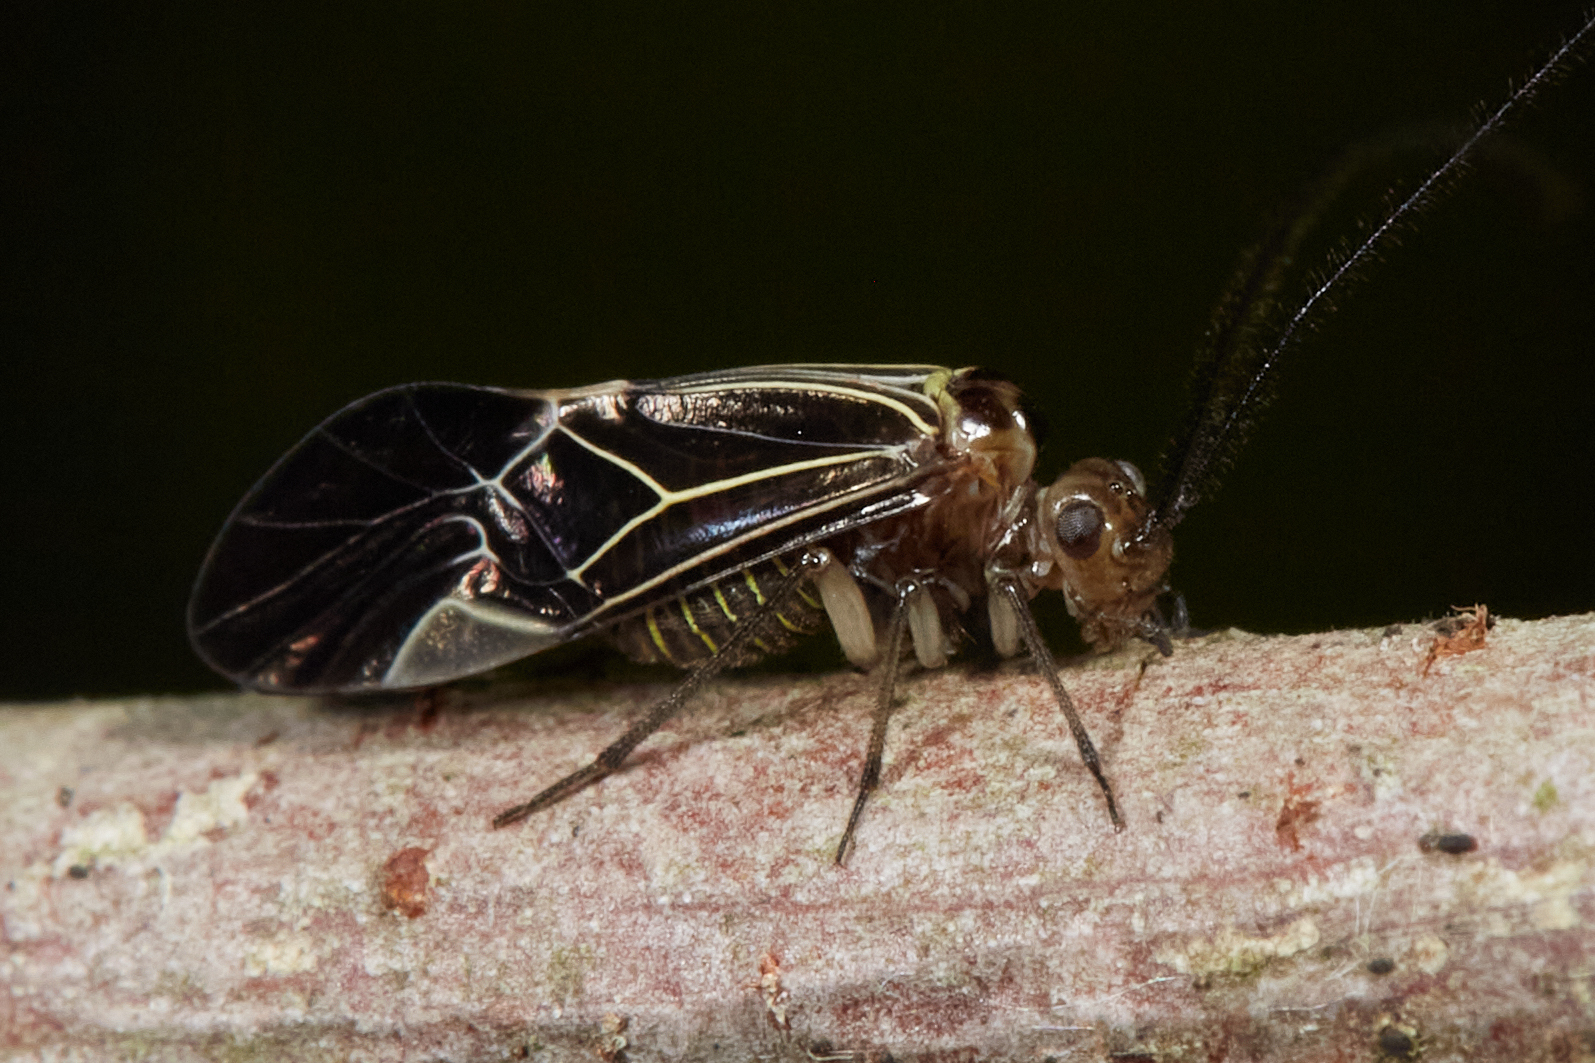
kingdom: Animalia
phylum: Arthropoda
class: Insecta
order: Psocodea
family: Psocidae
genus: Cerastipsocus
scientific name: Cerastipsocus venosus
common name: Tree cattle
